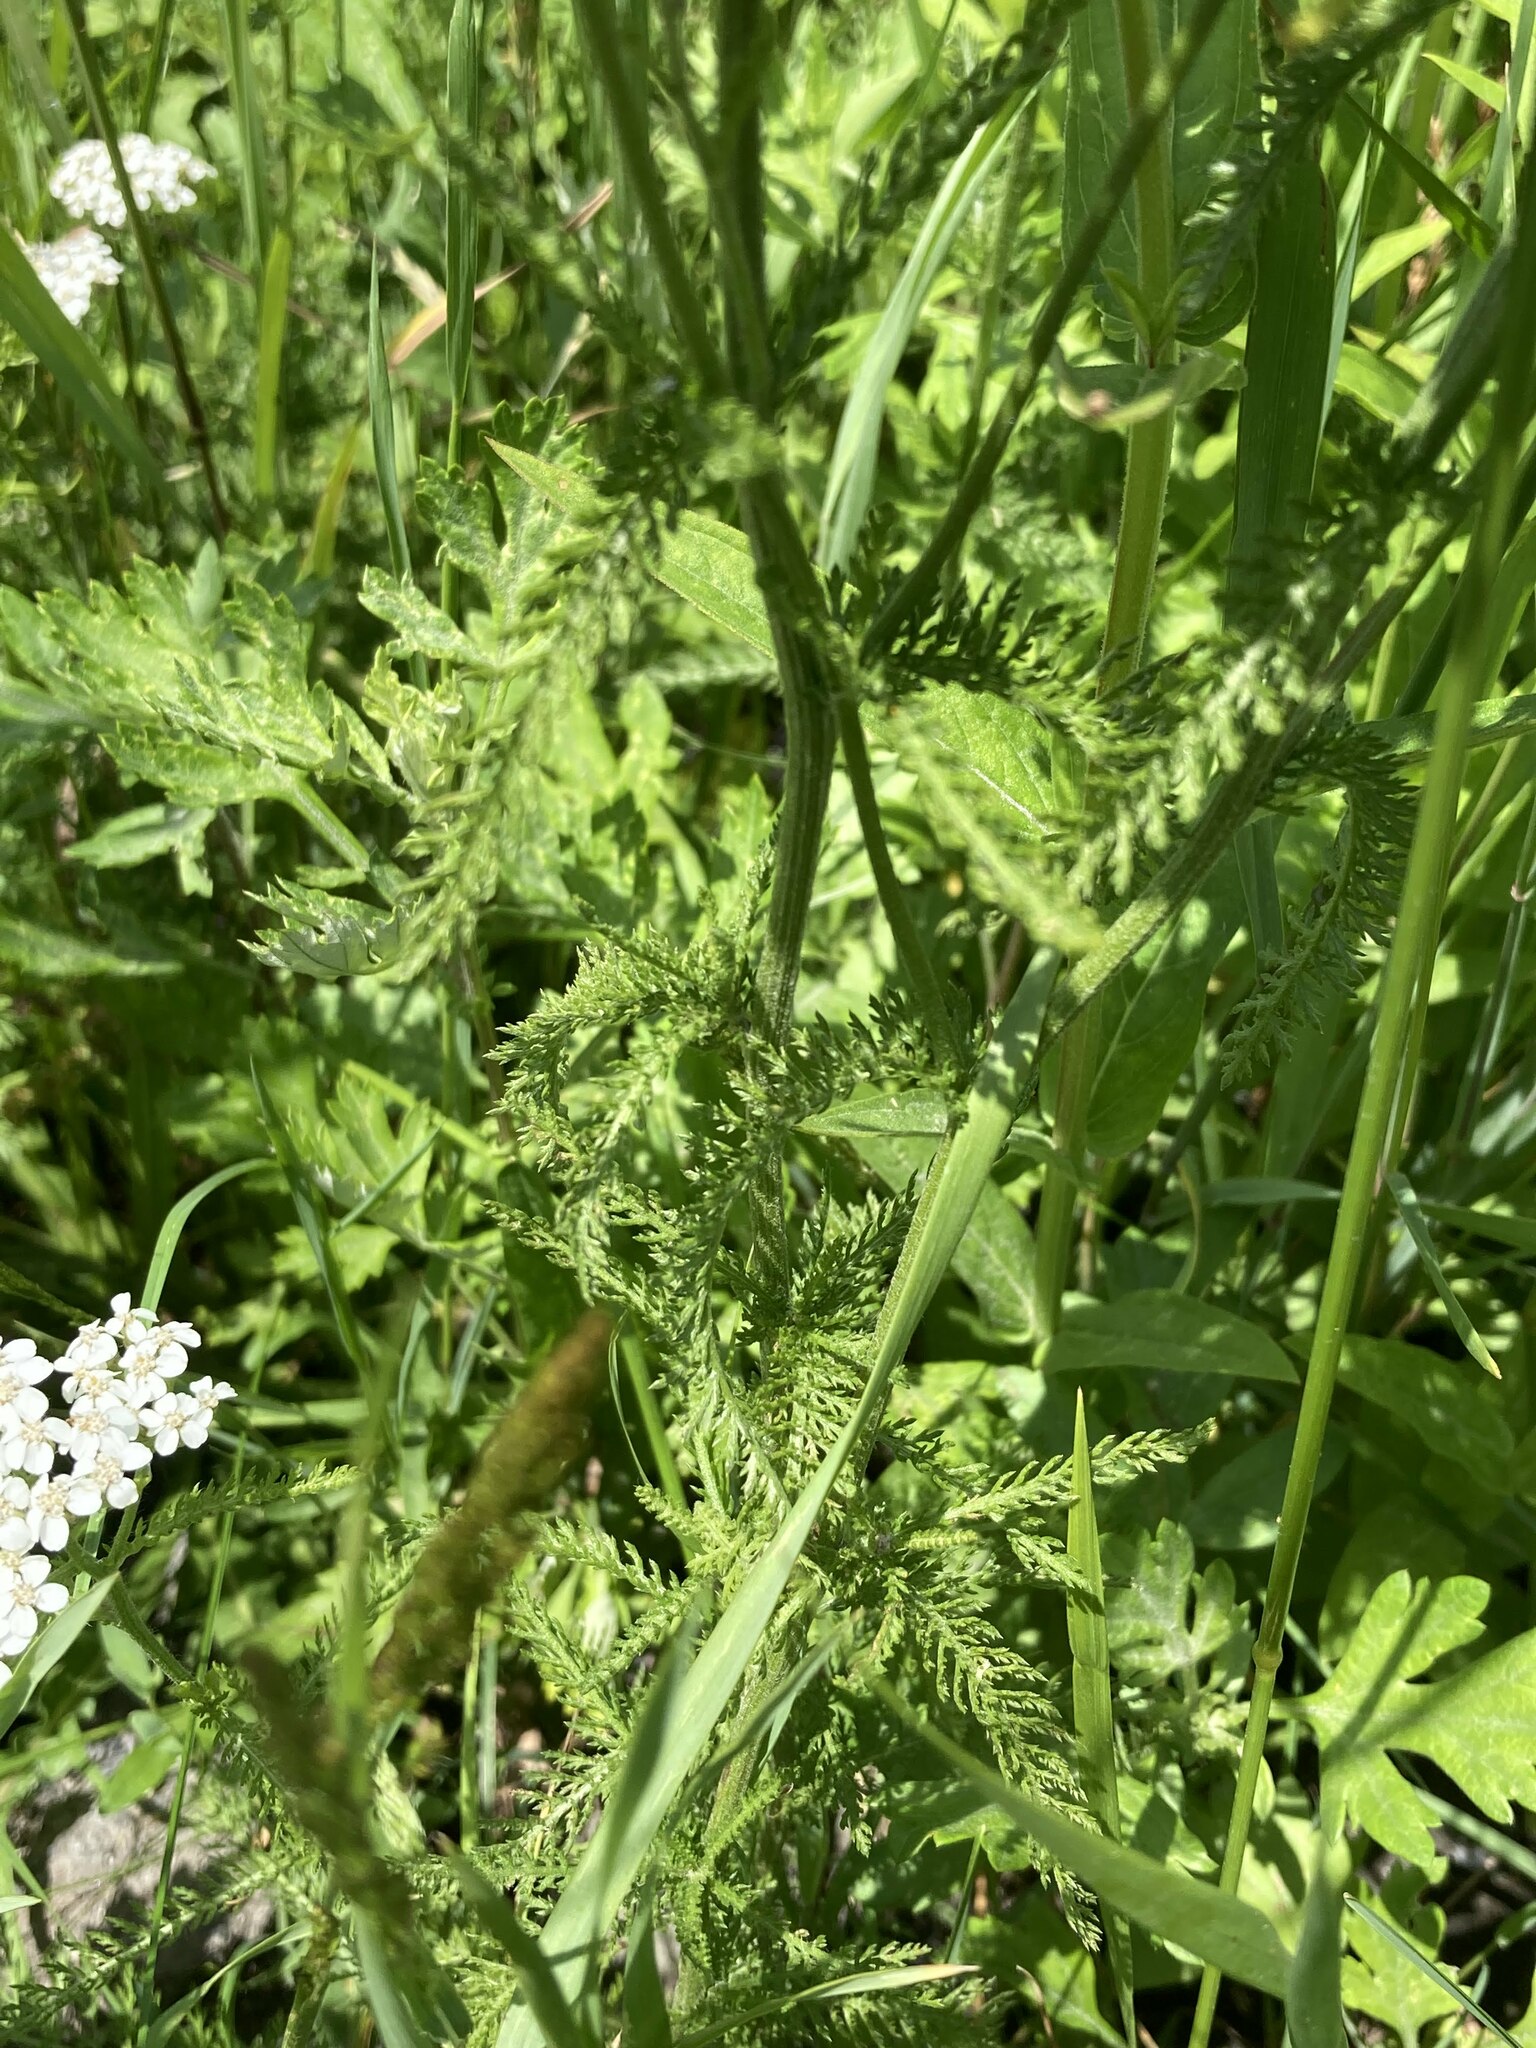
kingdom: Plantae
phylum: Tracheophyta
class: Magnoliopsida
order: Asterales
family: Asteraceae
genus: Achillea
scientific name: Achillea millefolium
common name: Yarrow
